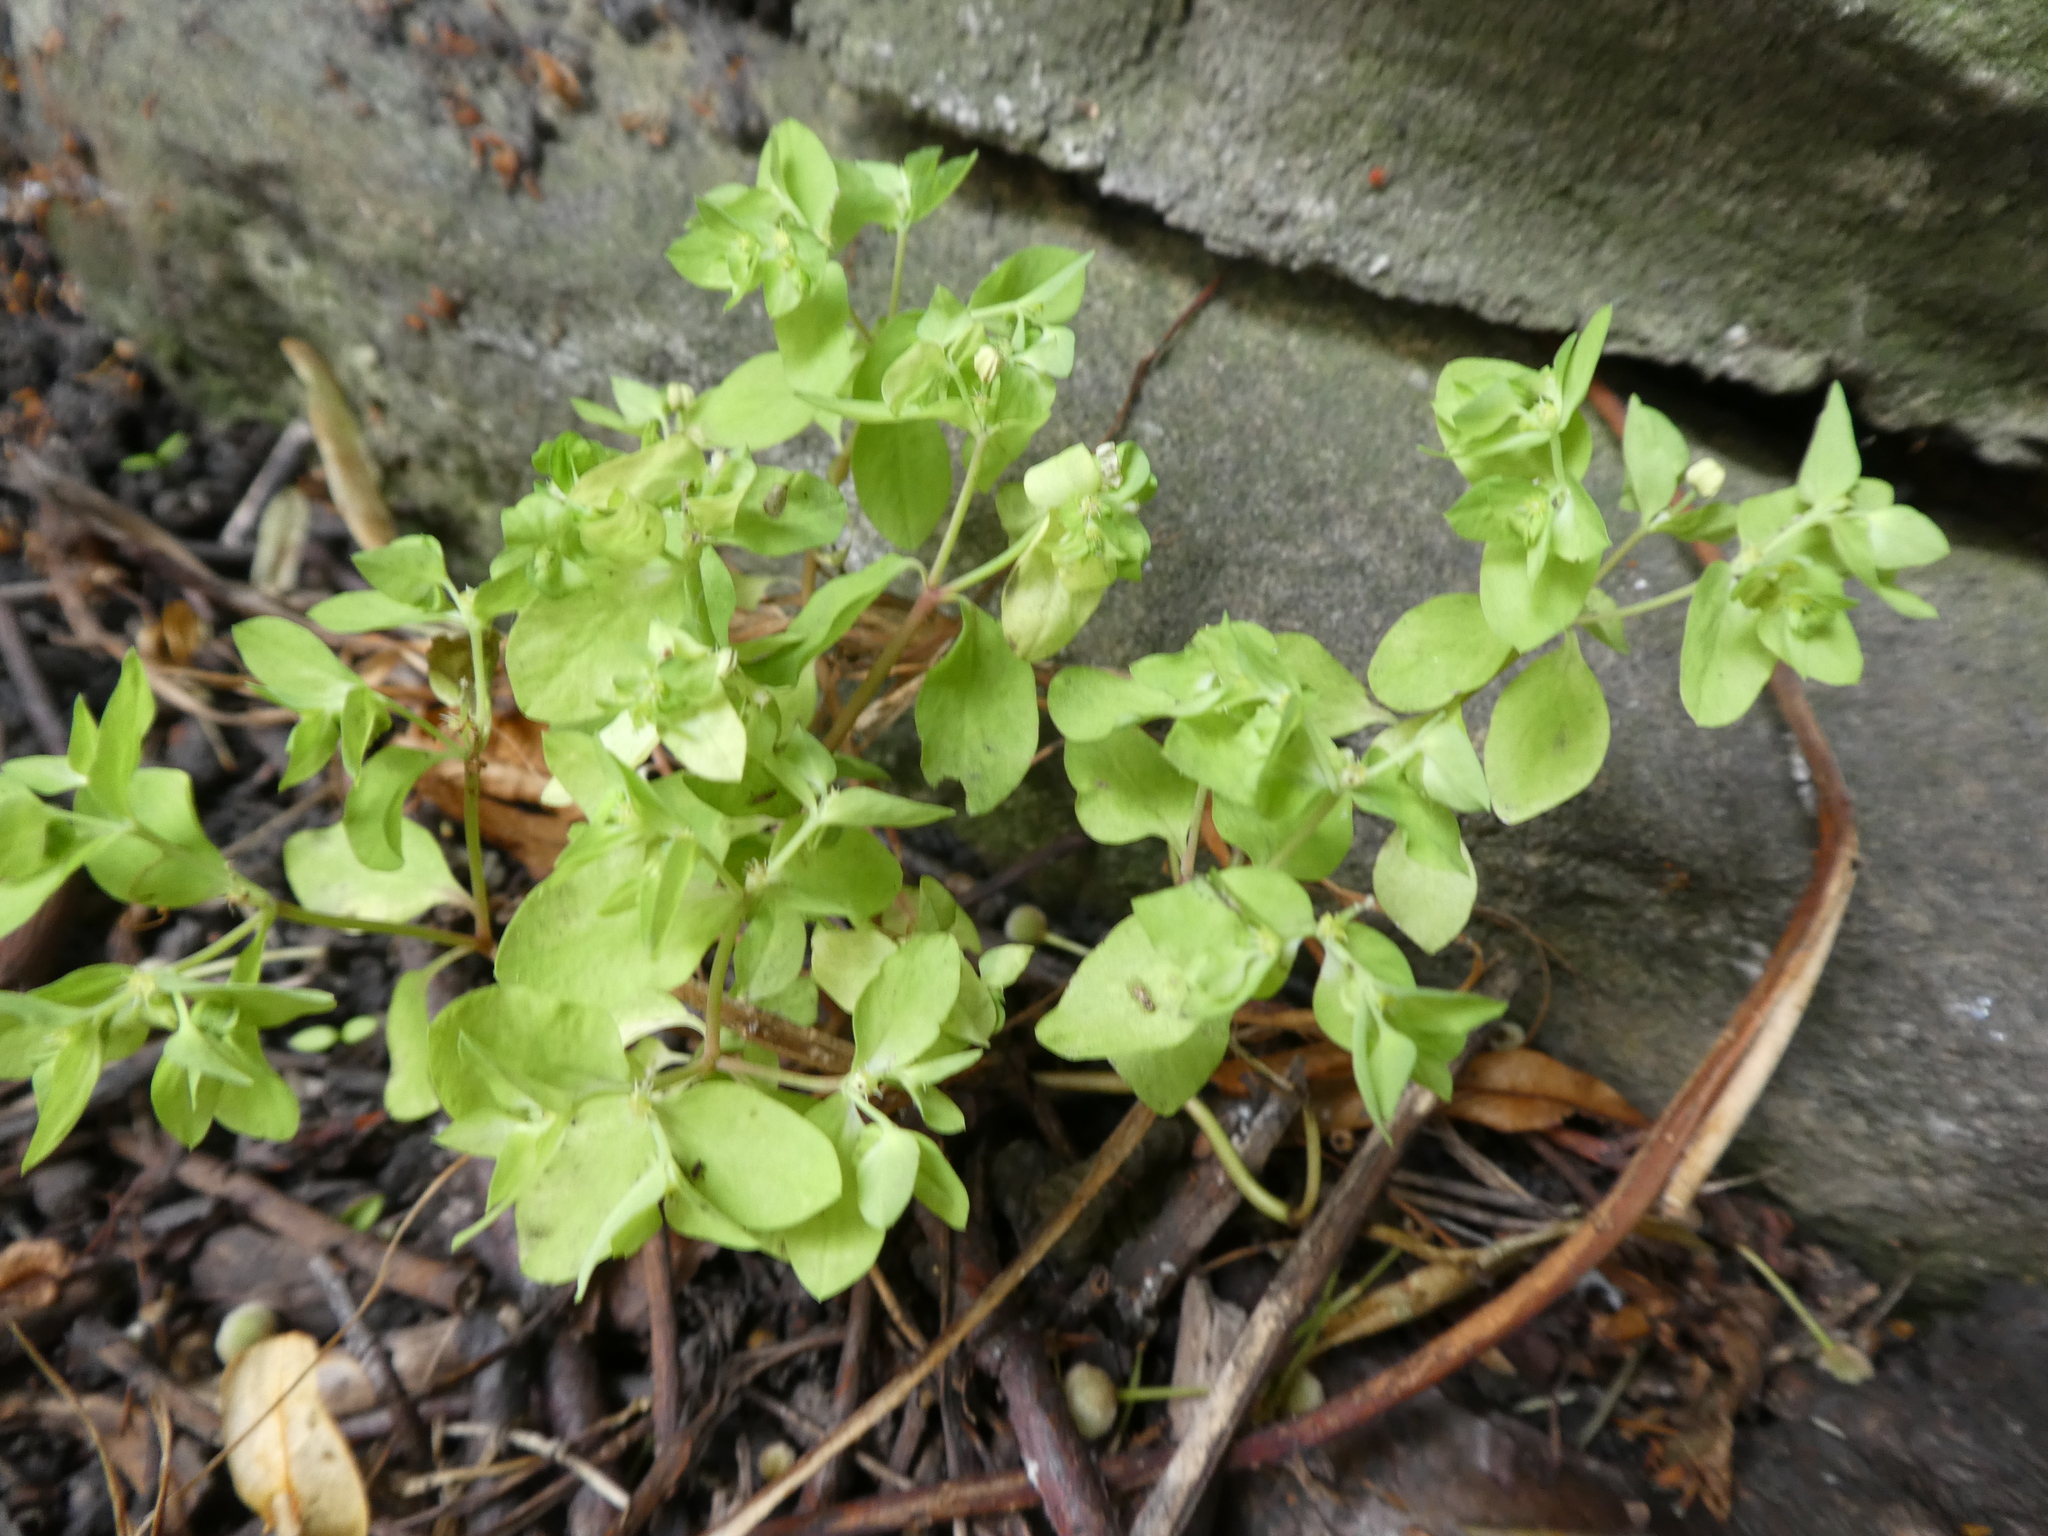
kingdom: Plantae
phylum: Tracheophyta
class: Magnoliopsida
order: Malpighiales
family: Euphorbiaceae
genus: Euphorbia
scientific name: Euphorbia peplus
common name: Petty spurge
